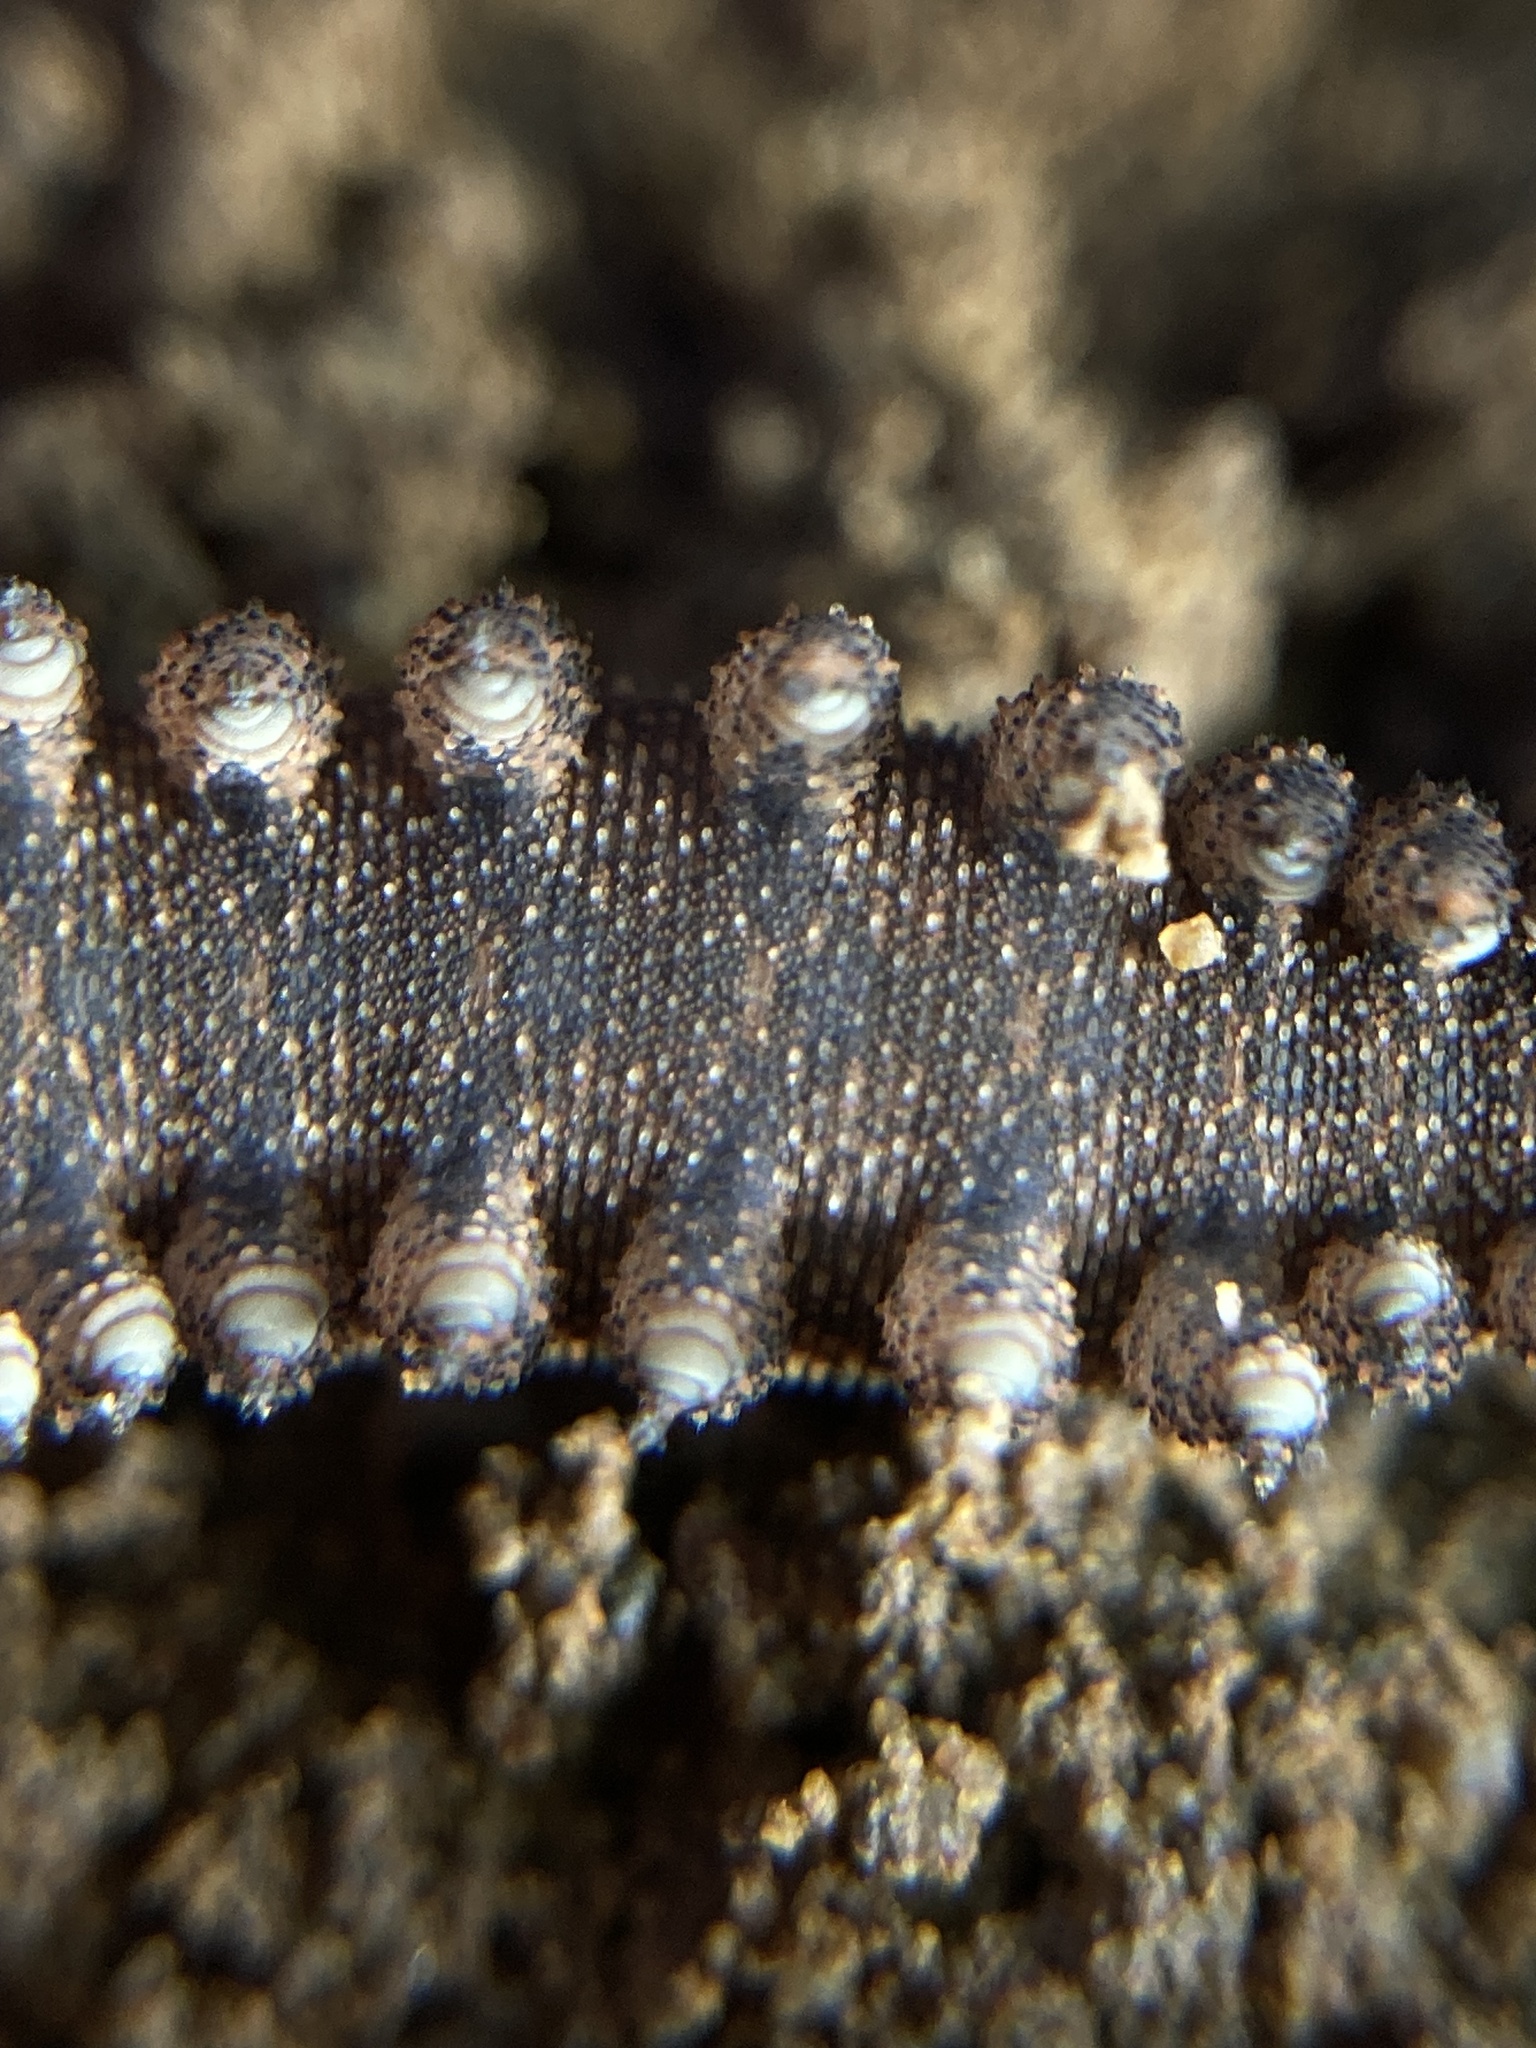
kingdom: Animalia
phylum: Onychophora
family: Peripatopsidae
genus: Anoplokaros
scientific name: Anoplokaros keerensis
